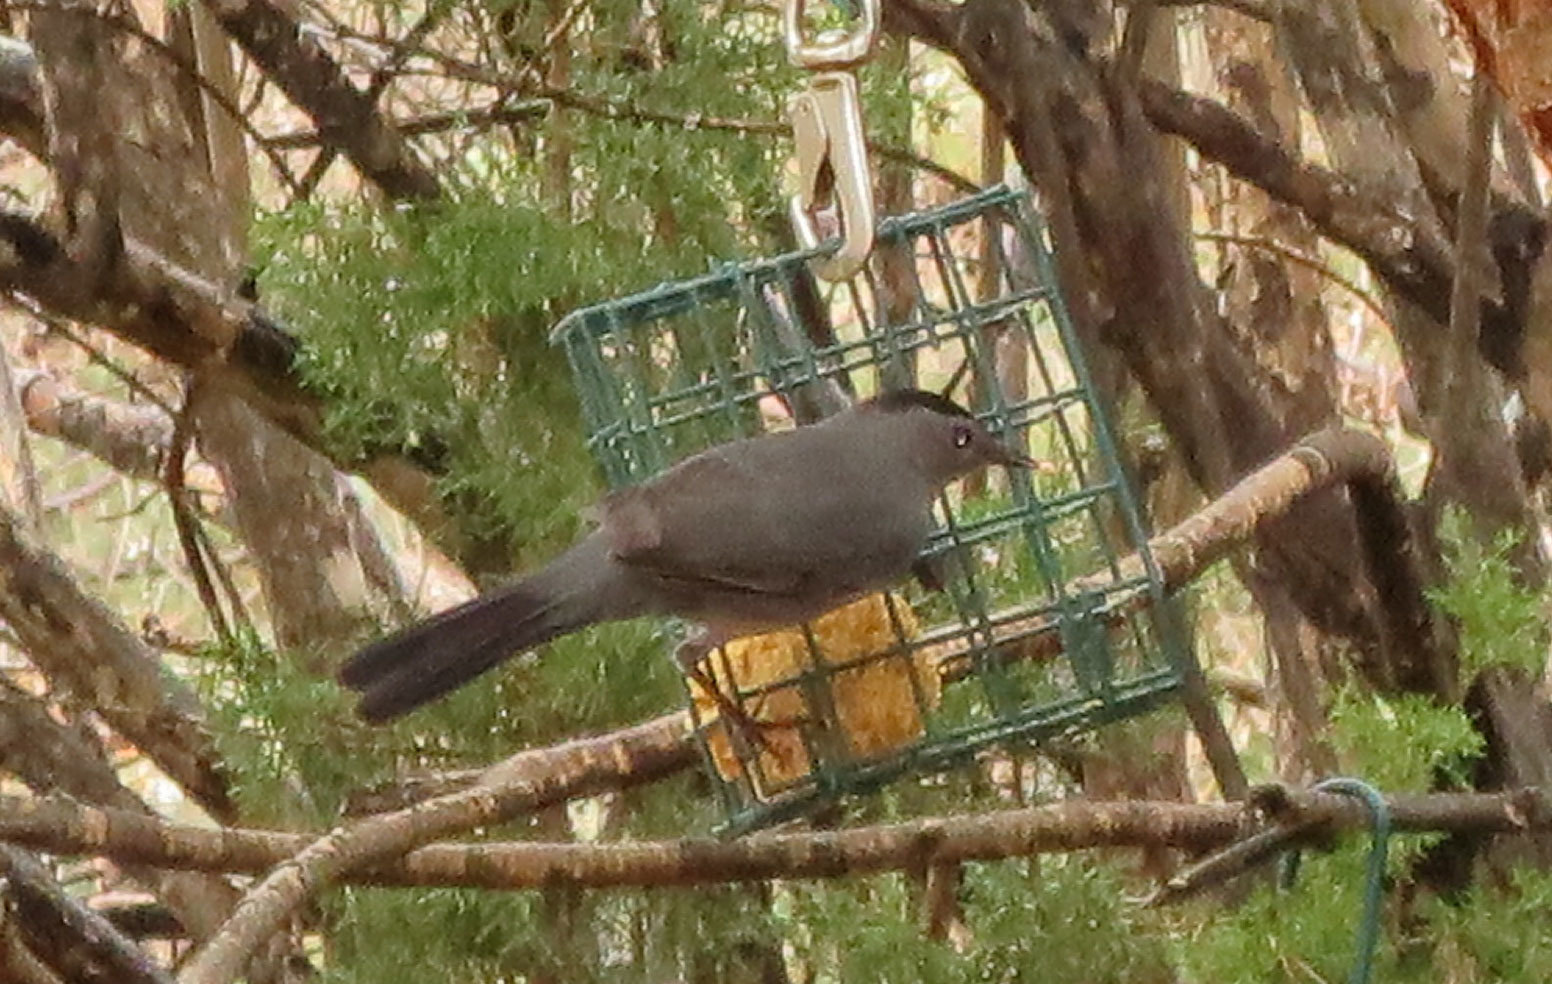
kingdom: Animalia
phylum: Chordata
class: Aves
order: Passeriformes
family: Mimidae
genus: Dumetella
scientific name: Dumetella carolinensis
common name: Gray catbird
